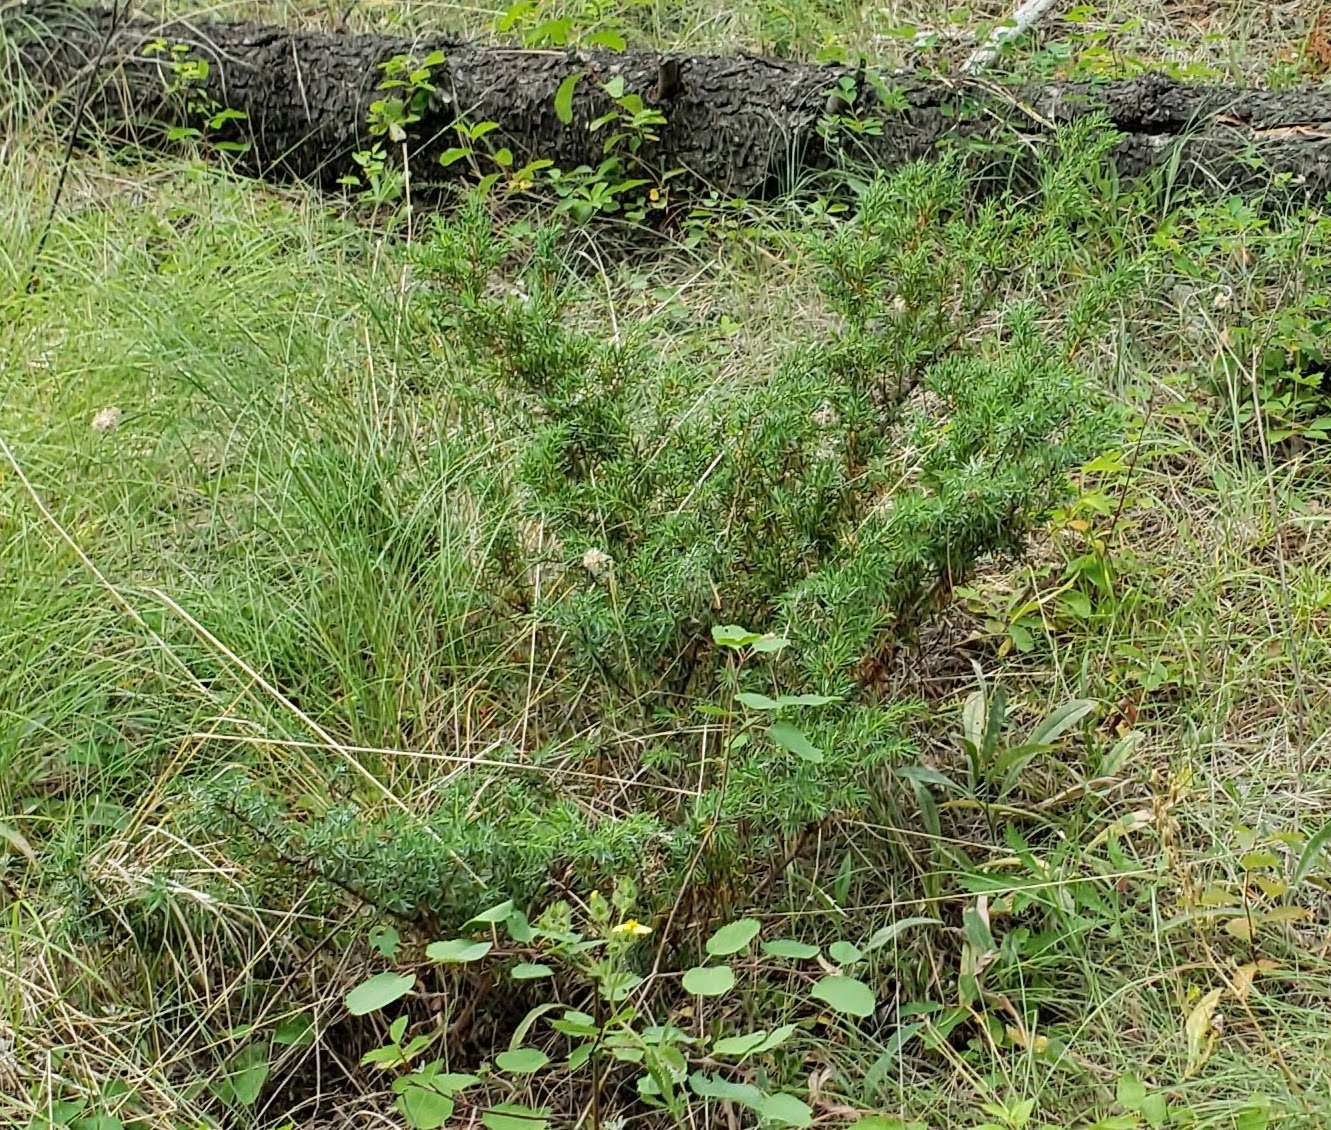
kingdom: Plantae
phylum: Tracheophyta
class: Pinopsida
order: Pinales
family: Cupressaceae
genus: Juniperus
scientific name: Juniperus communis
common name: Common juniper
